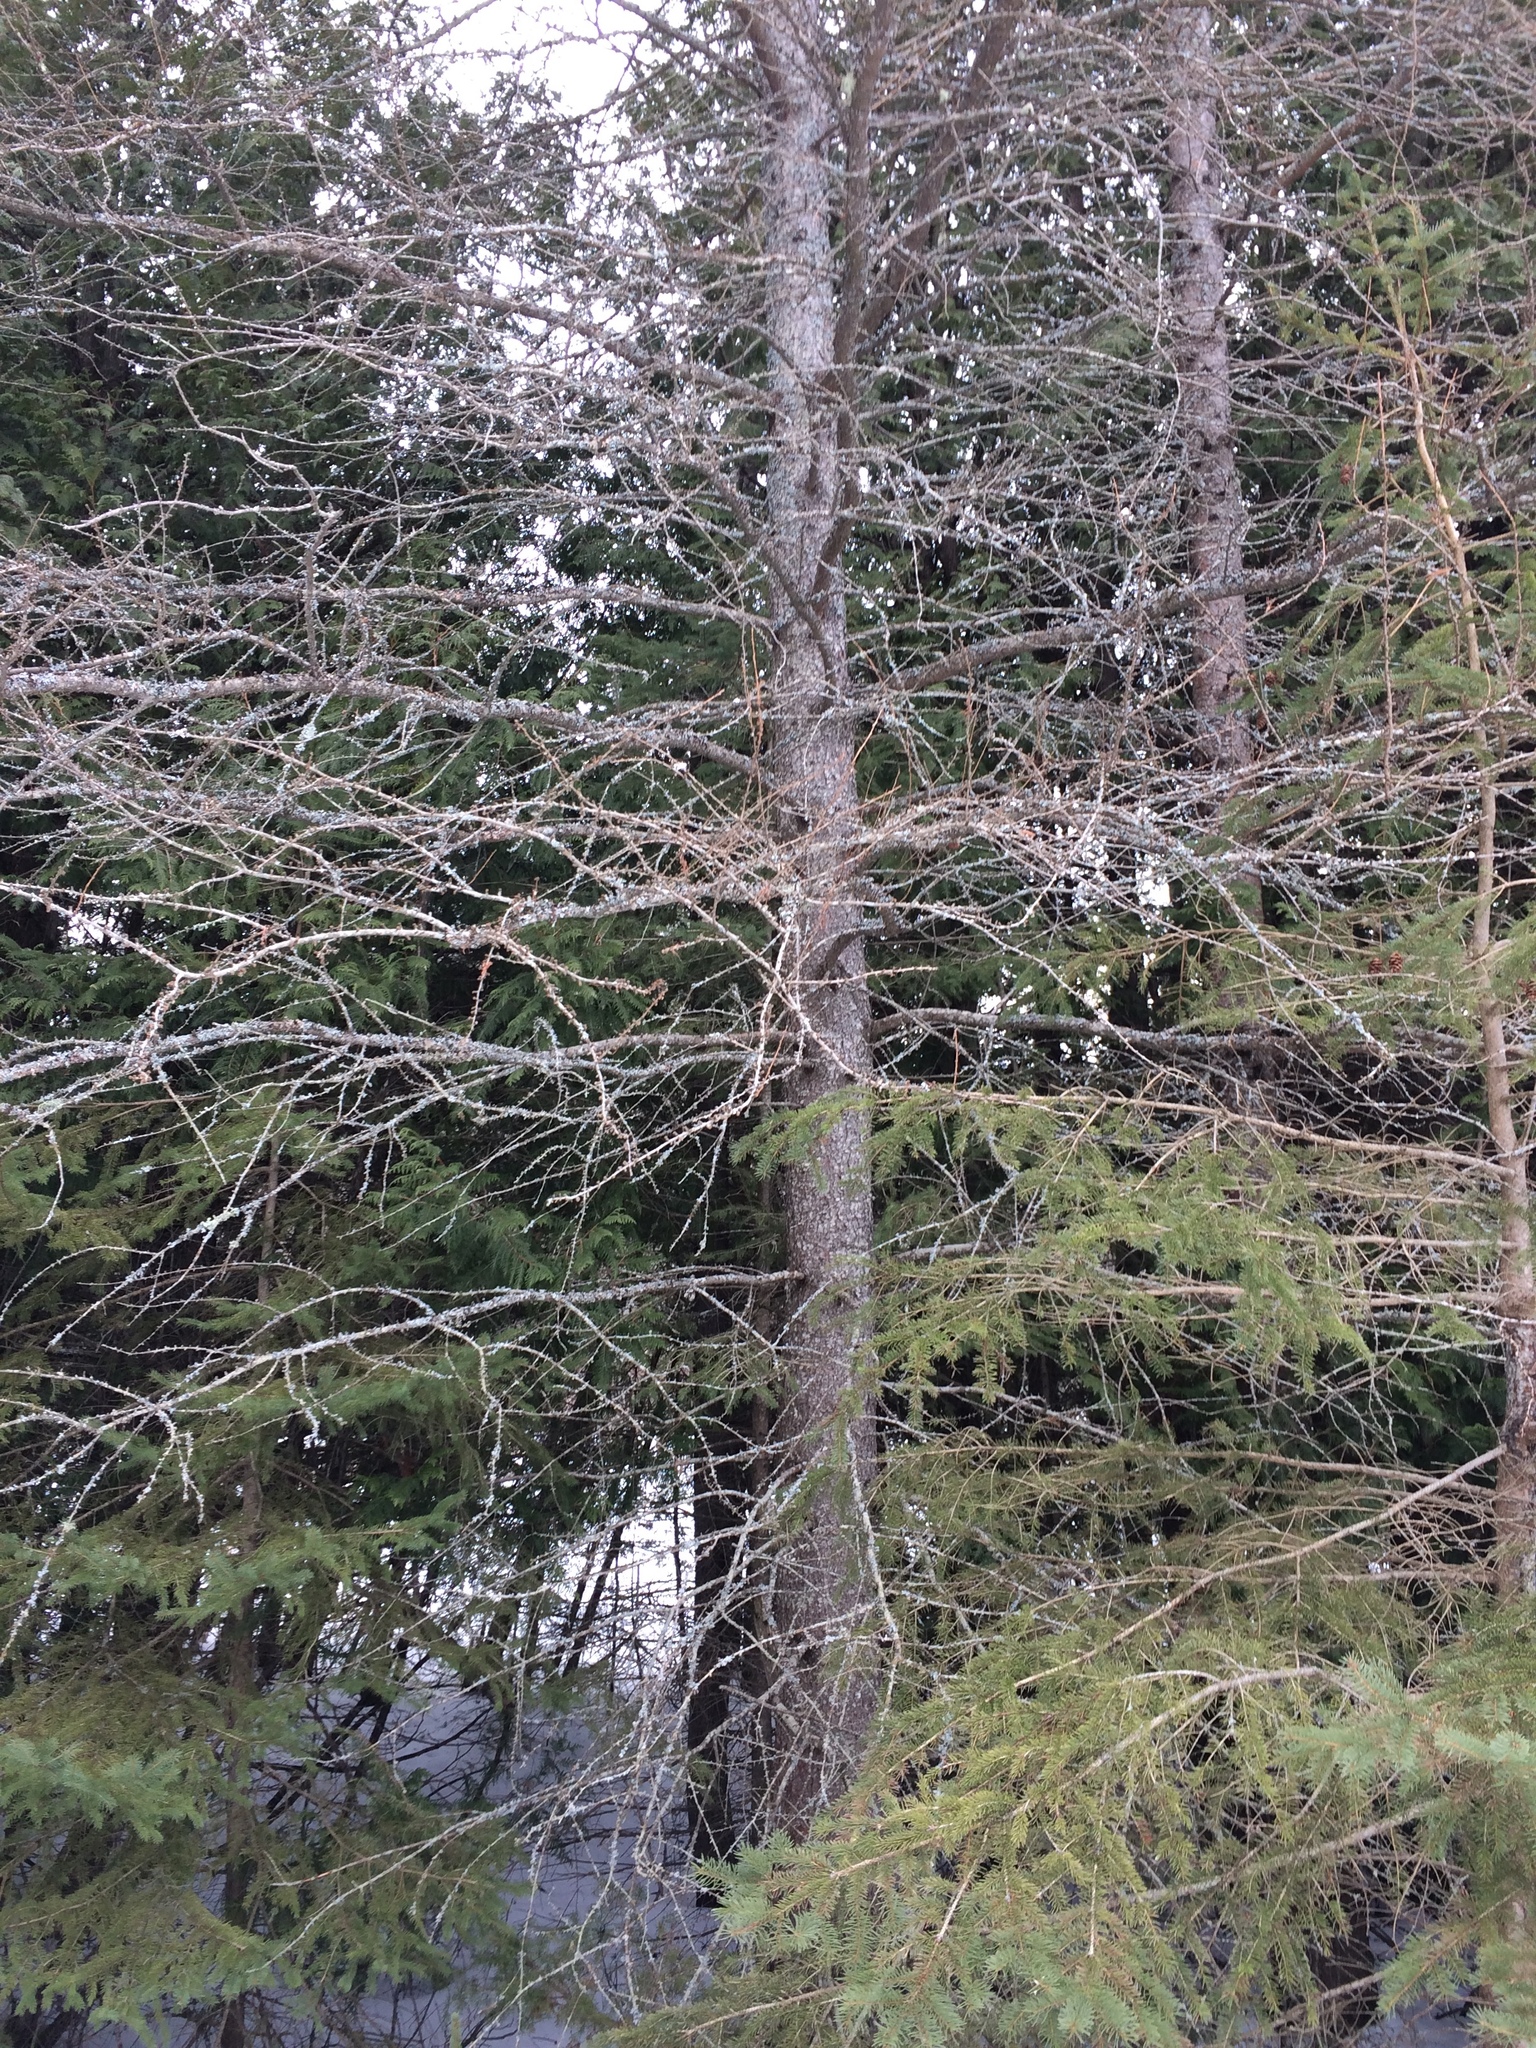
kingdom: Plantae
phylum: Tracheophyta
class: Pinopsida
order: Pinales
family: Pinaceae
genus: Larix
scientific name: Larix laricina
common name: American larch
